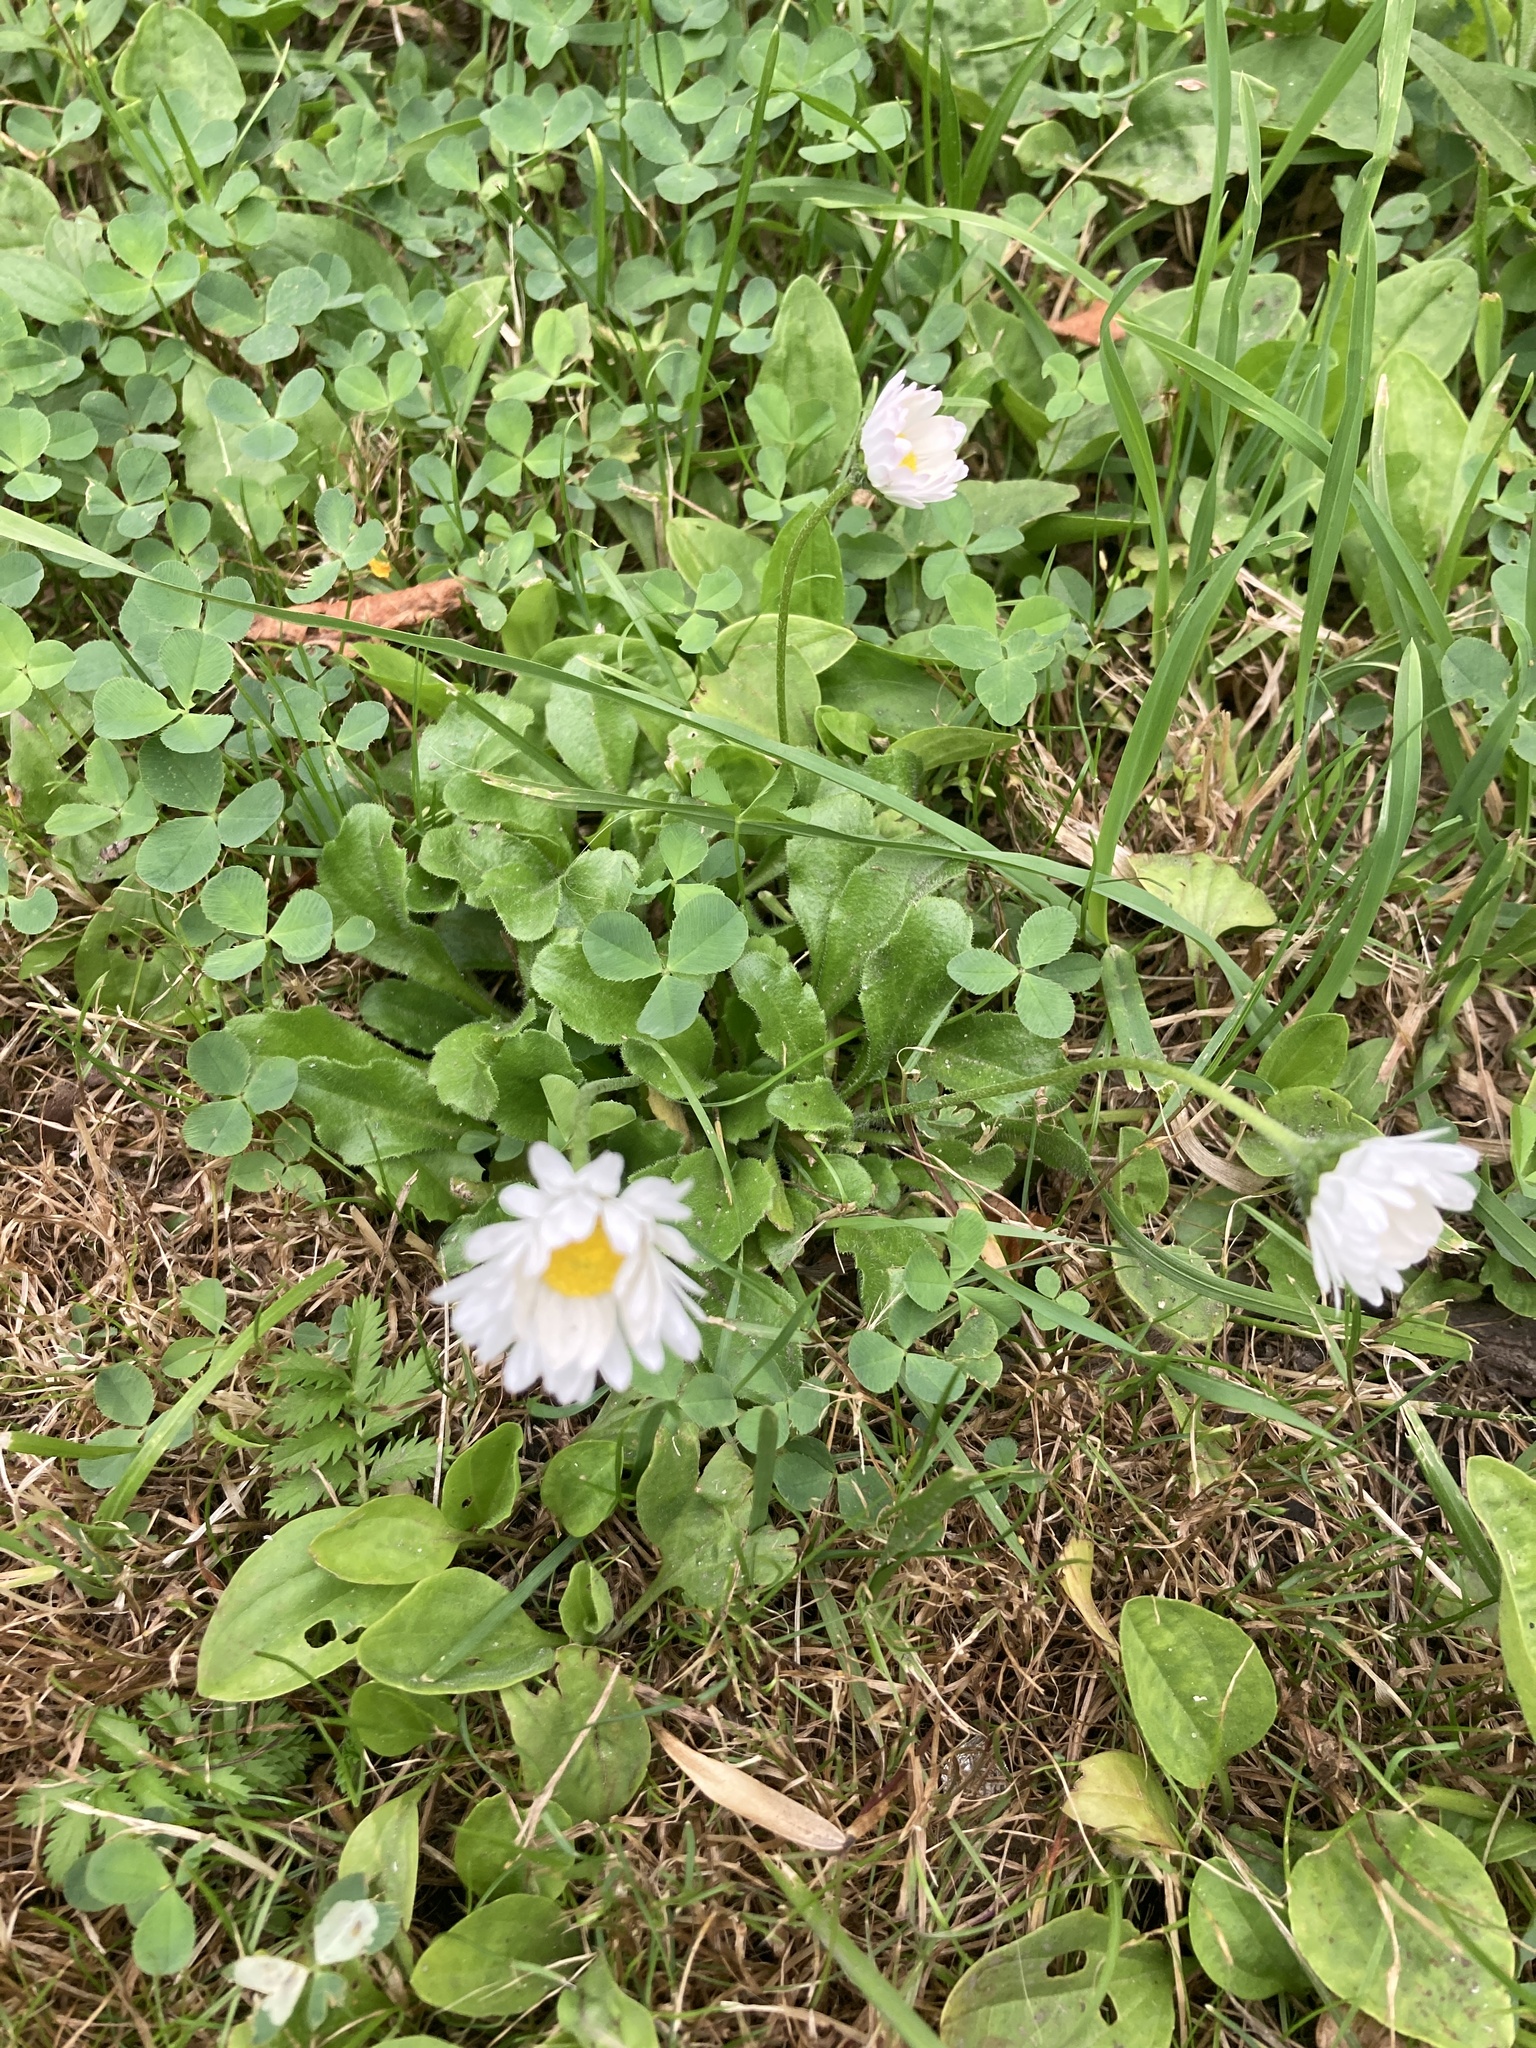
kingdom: Plantae
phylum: Tracheophyta
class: Magnoliopsida
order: Asterales
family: Asteraceae
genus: Bellis
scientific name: Bellis perennis
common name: Lawndaisy
